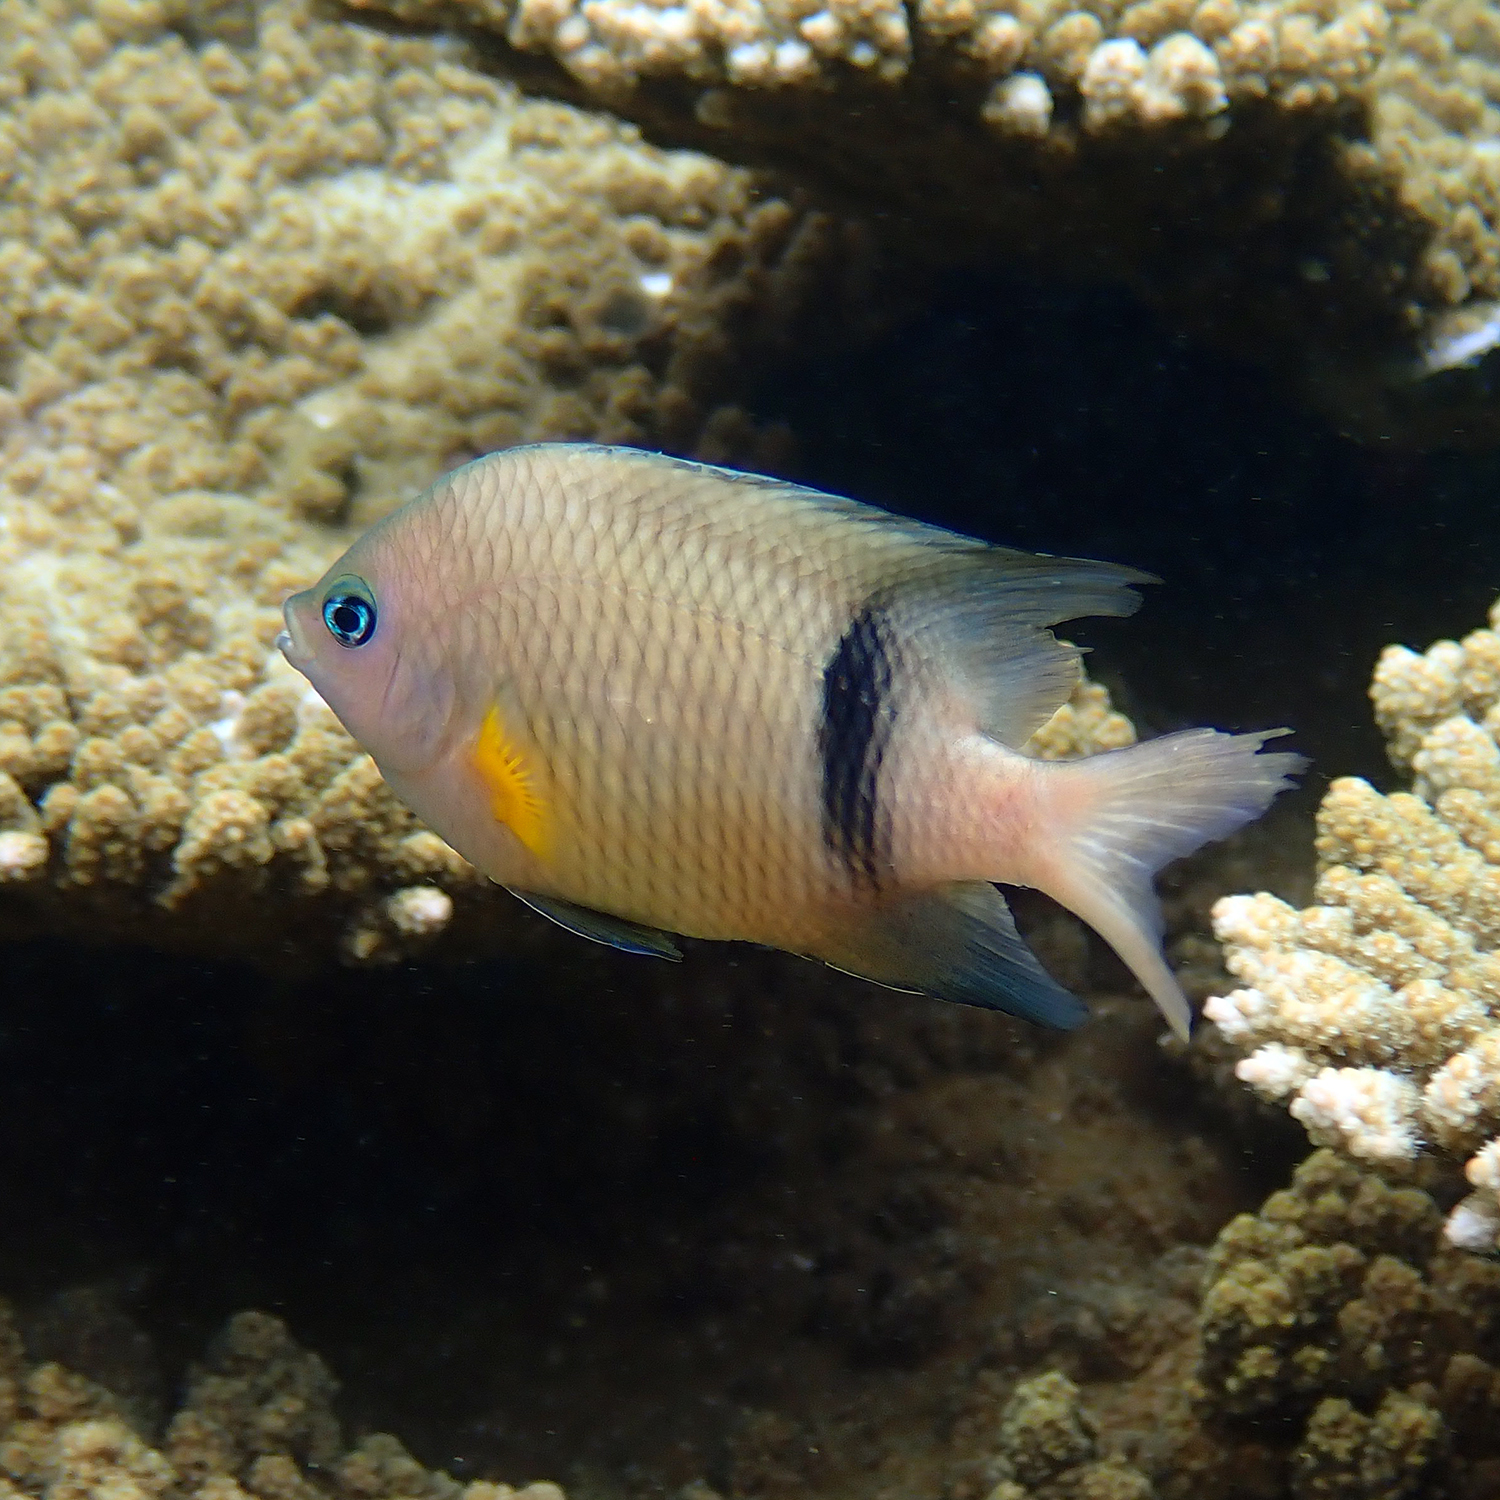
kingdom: Animalia
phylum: Chordata
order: Perciformes
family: Pomacentridae
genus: Plectroglyphidodon
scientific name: Plectroglyphidodon dickii
